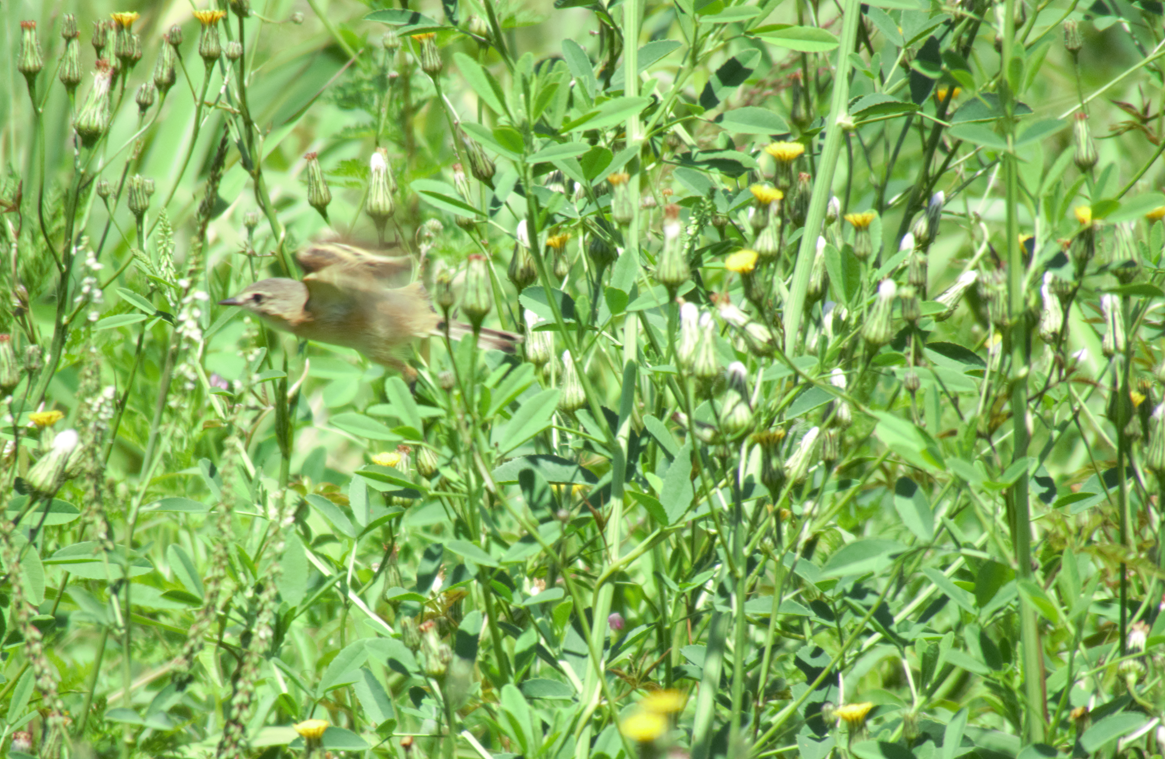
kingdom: Animalia
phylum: Chordata
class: Aves
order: Passeriformes
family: Tyrannidae
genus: Polystictus
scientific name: Polystictus pectoralis
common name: Bearded tachuri
